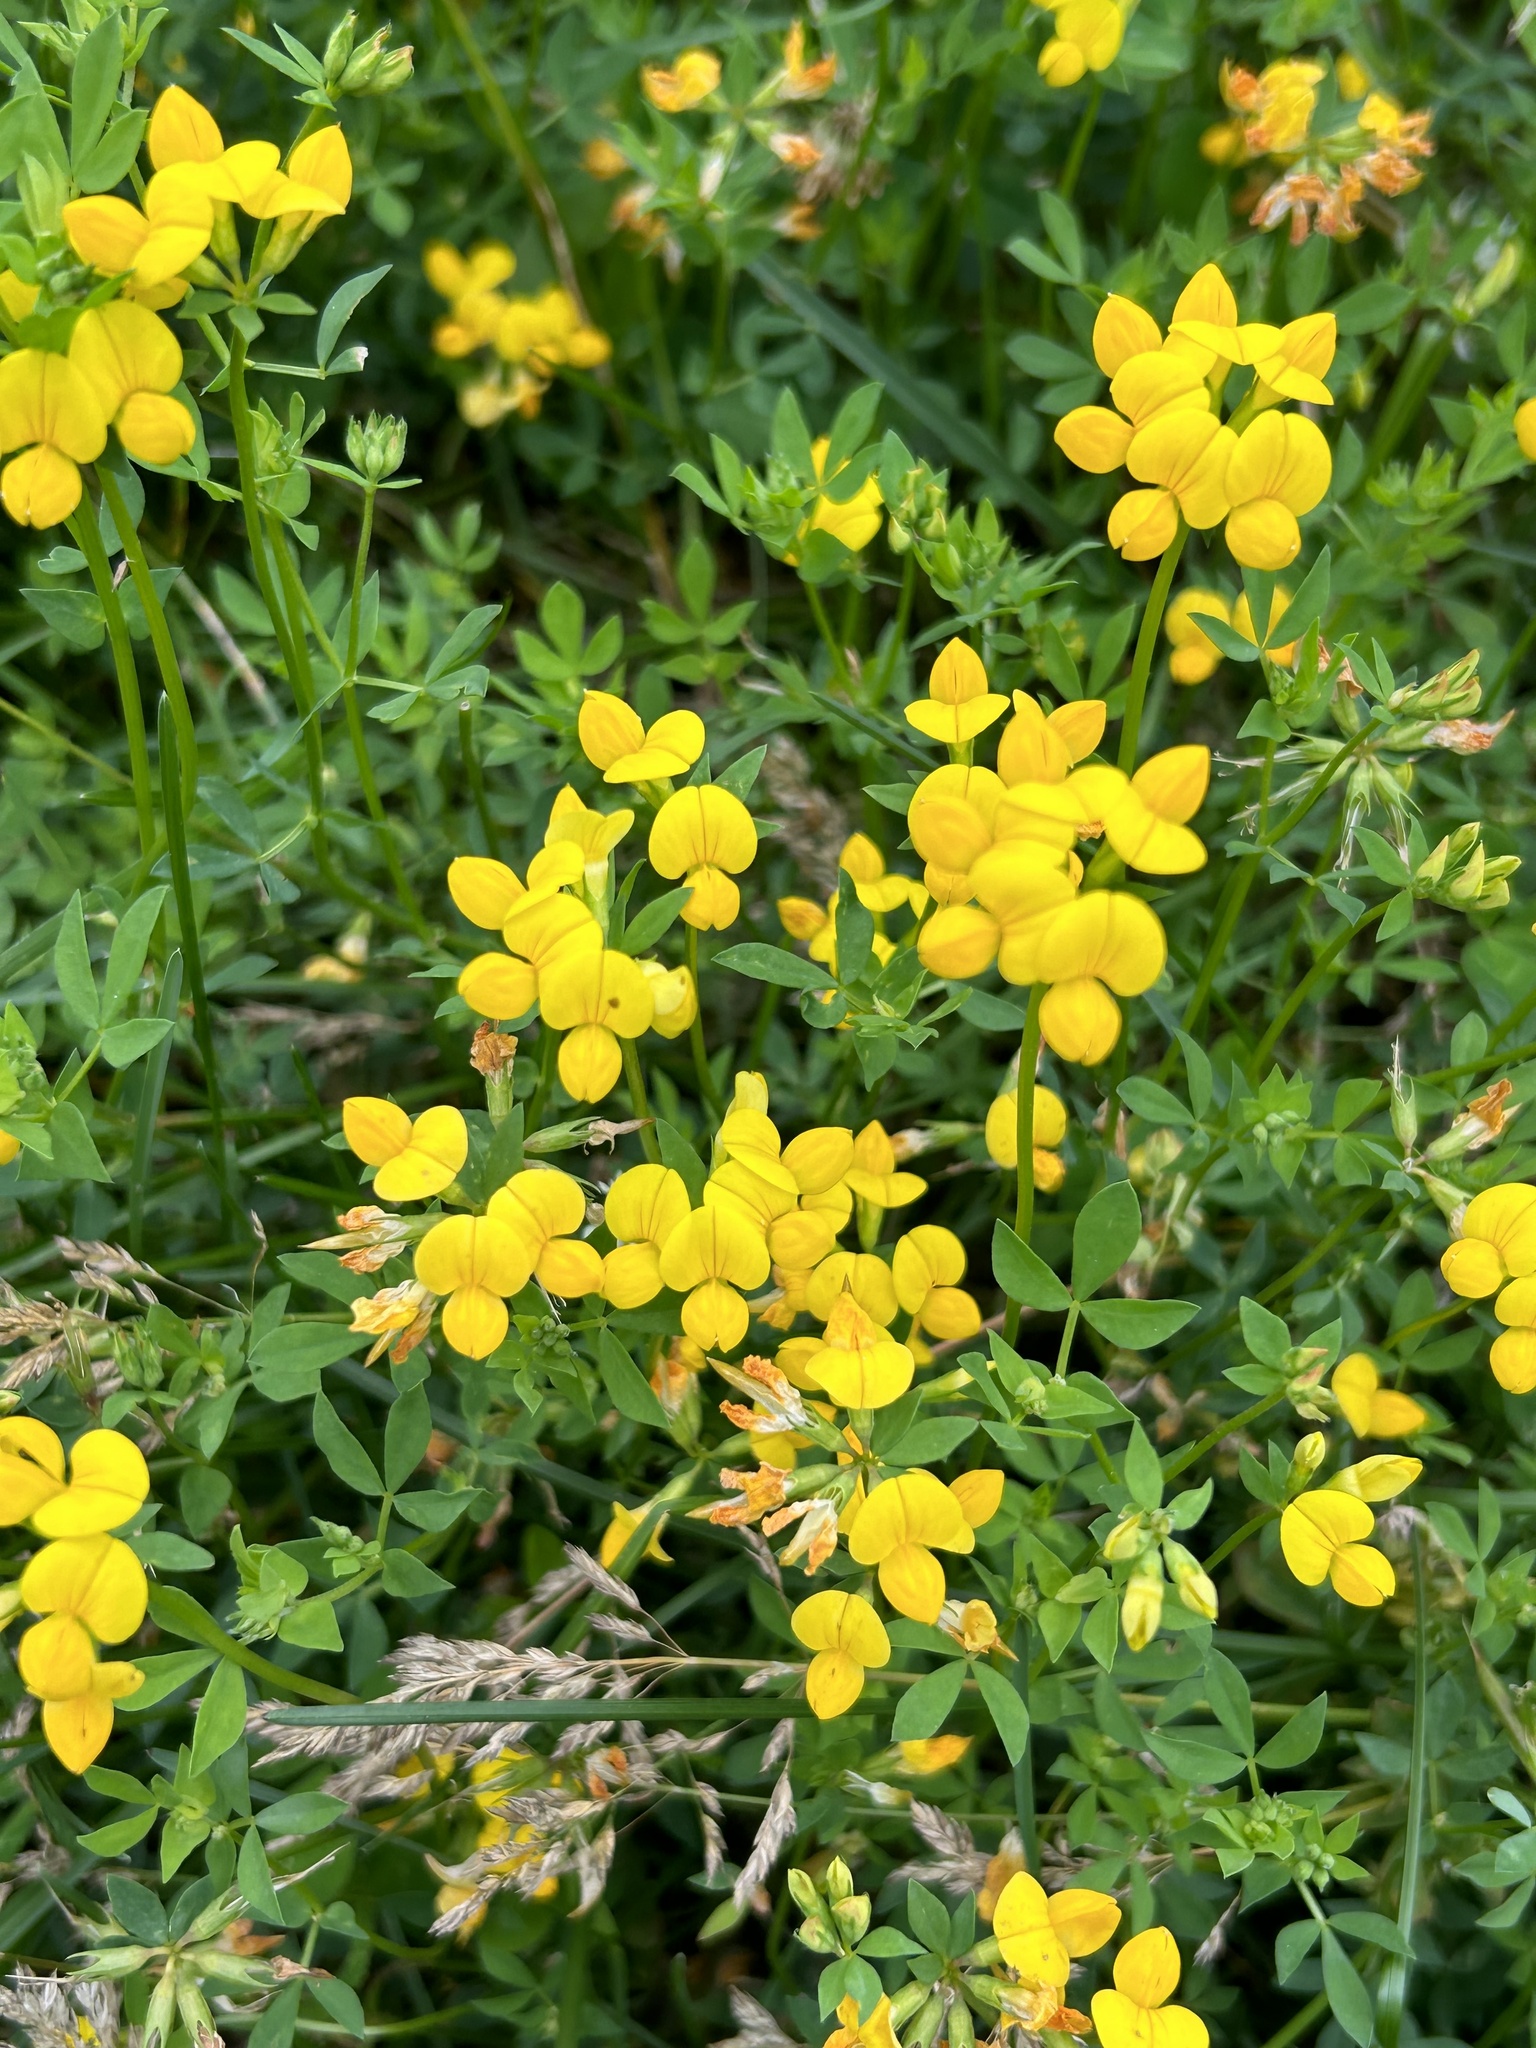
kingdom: Plantae
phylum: Tracheophyta
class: Magnoliopsida
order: Fabales
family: Fabaceae
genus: Lotus
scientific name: Lotus corniculatus
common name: Common bird's-foot-trefoil
